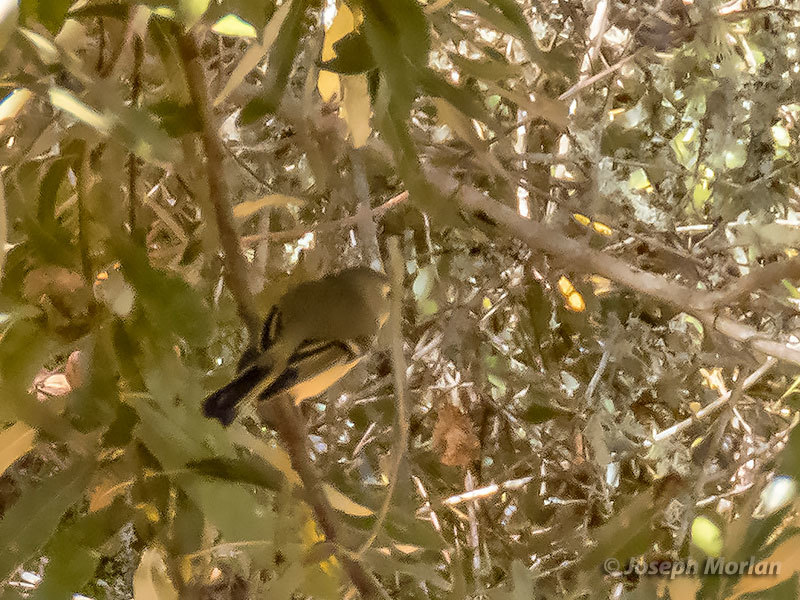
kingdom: Animalia
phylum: Chordata
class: Aves
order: Passeriformes
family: Regulidae
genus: Regulus
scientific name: Regulus calendula
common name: Ruby-crowned kinglet
